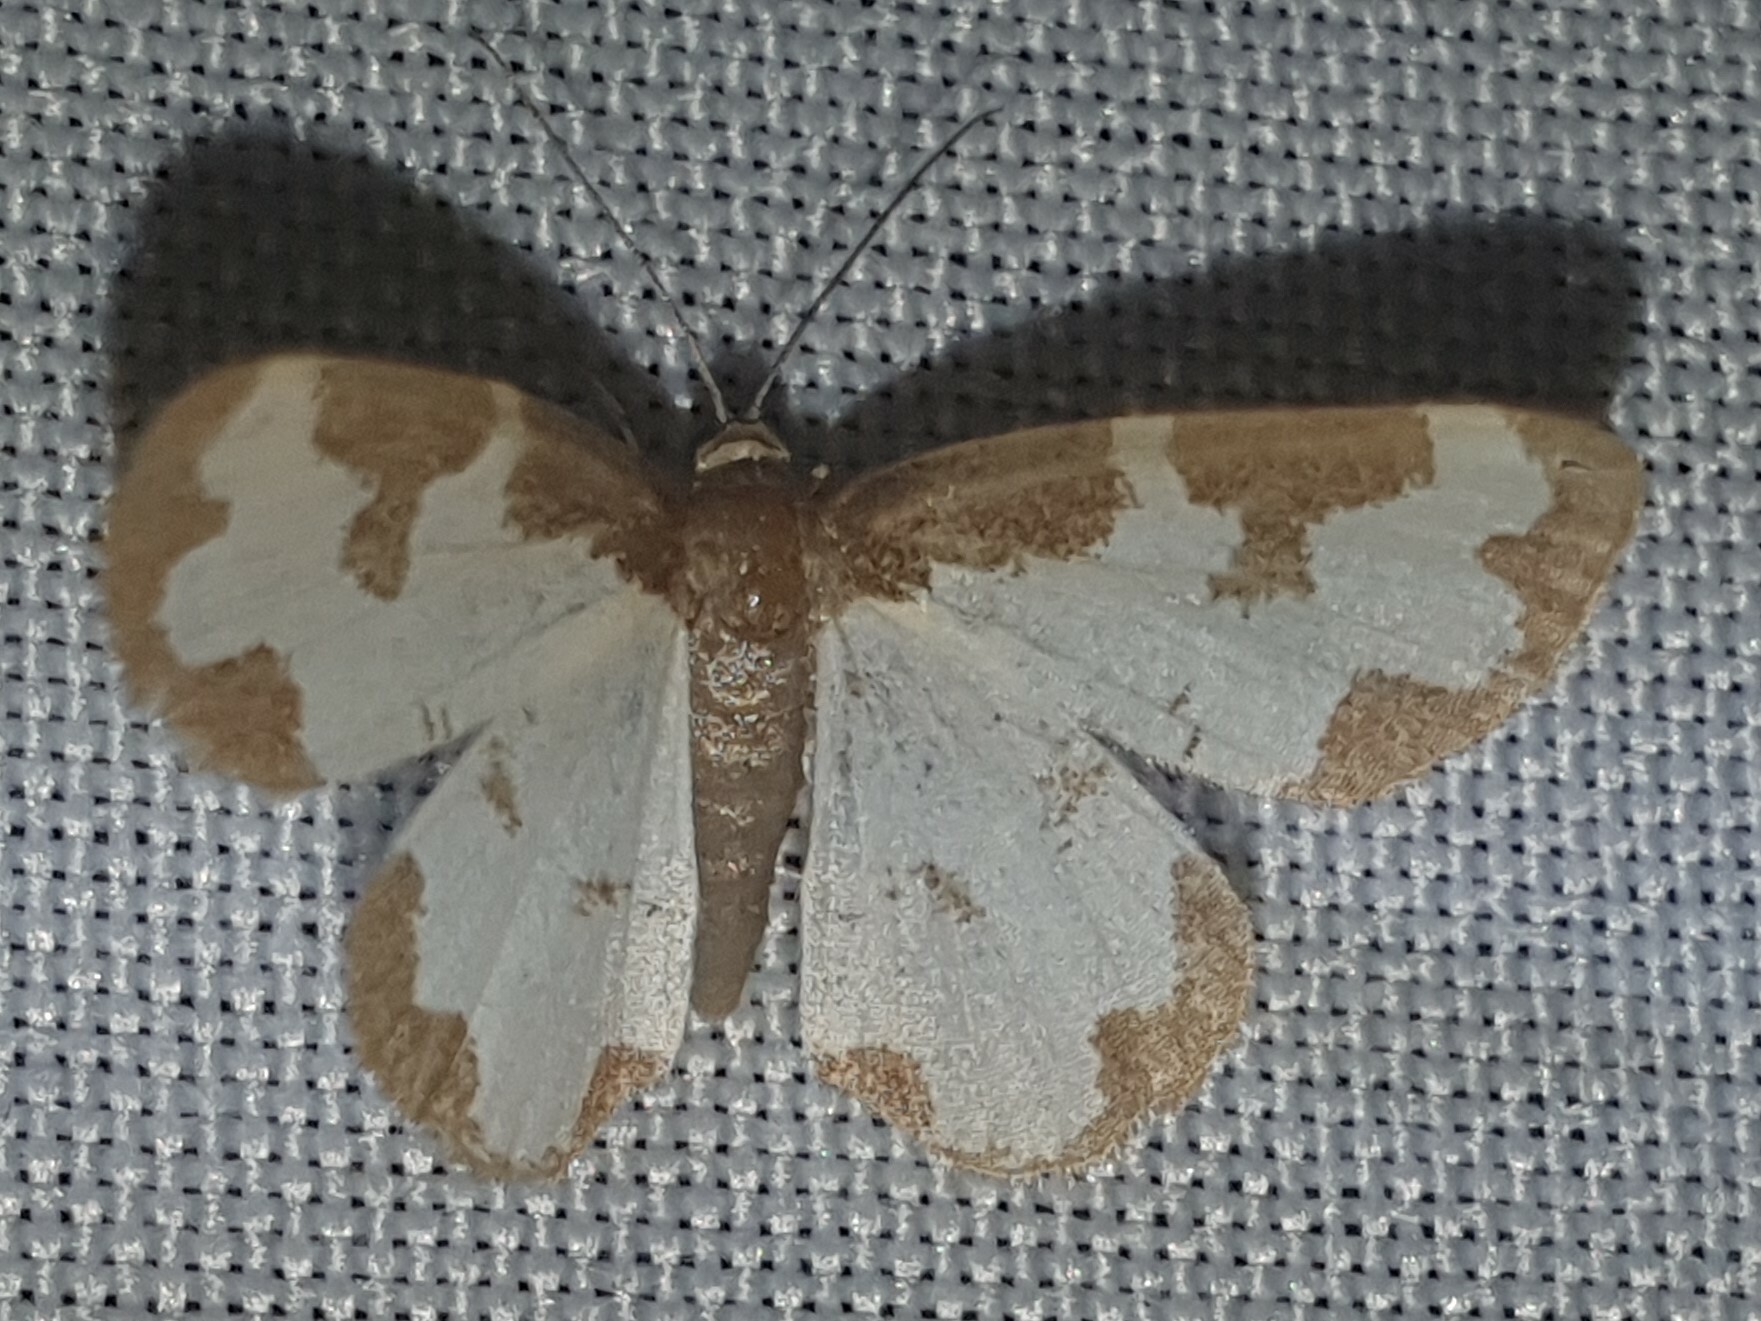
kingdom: Animalia
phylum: Arthropoda
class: Insecta
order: Lepidoptera
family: Geometridae
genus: Lomaspilis
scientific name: Lomaspilis marginata
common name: Clouded border
